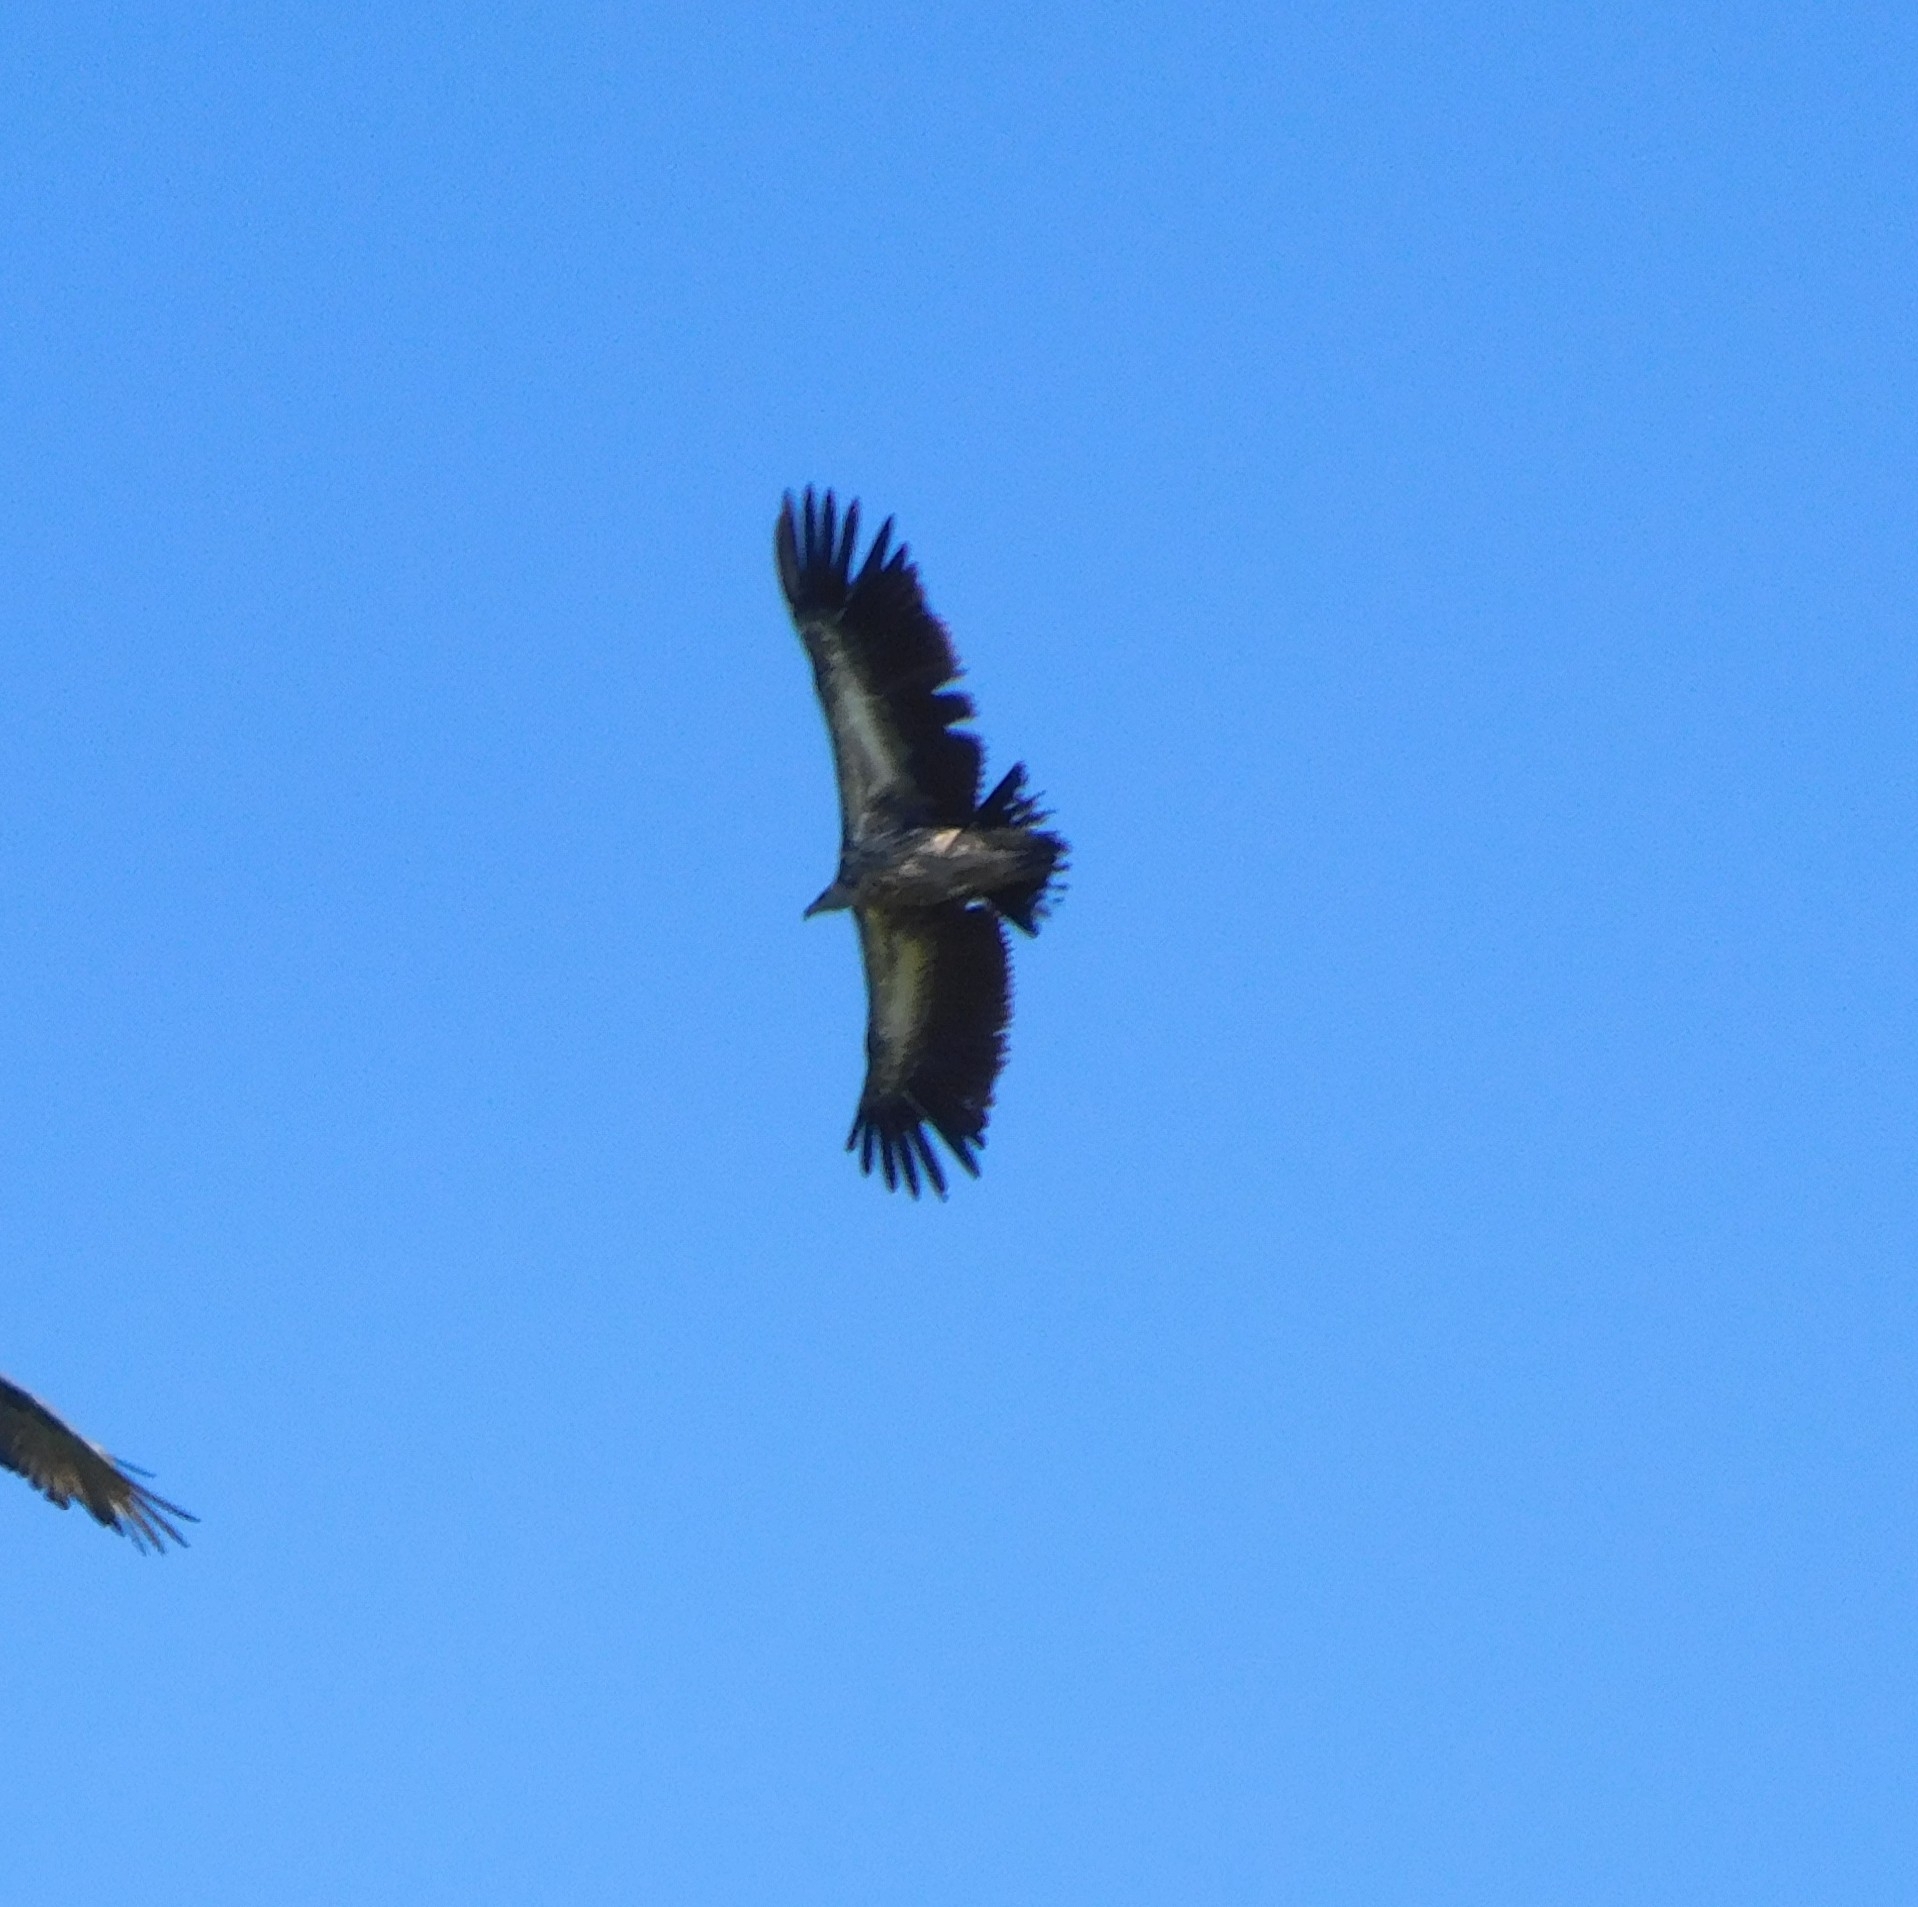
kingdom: Animalia
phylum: Chordata
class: Aves
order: Accipitriformes
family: Accipitridae
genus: Gyps
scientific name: Gyps himalayensis
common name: Himalayan griffon
